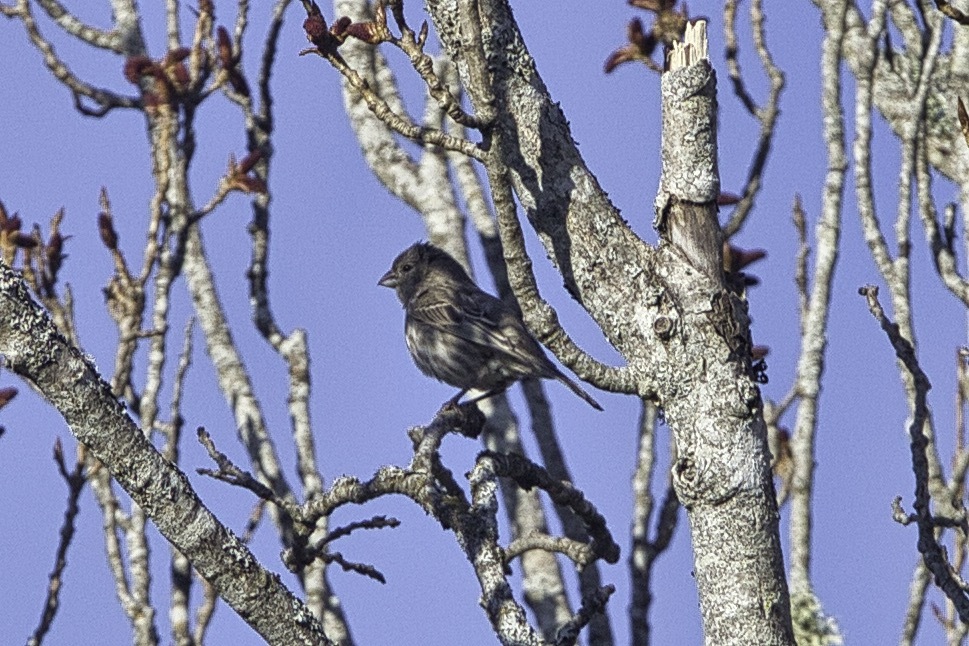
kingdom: Animalia
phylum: Chordata
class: Aves
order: Passeriformes
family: Fringillidae
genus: Haemorhous
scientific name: Haemorhous mexicanus
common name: House finch
